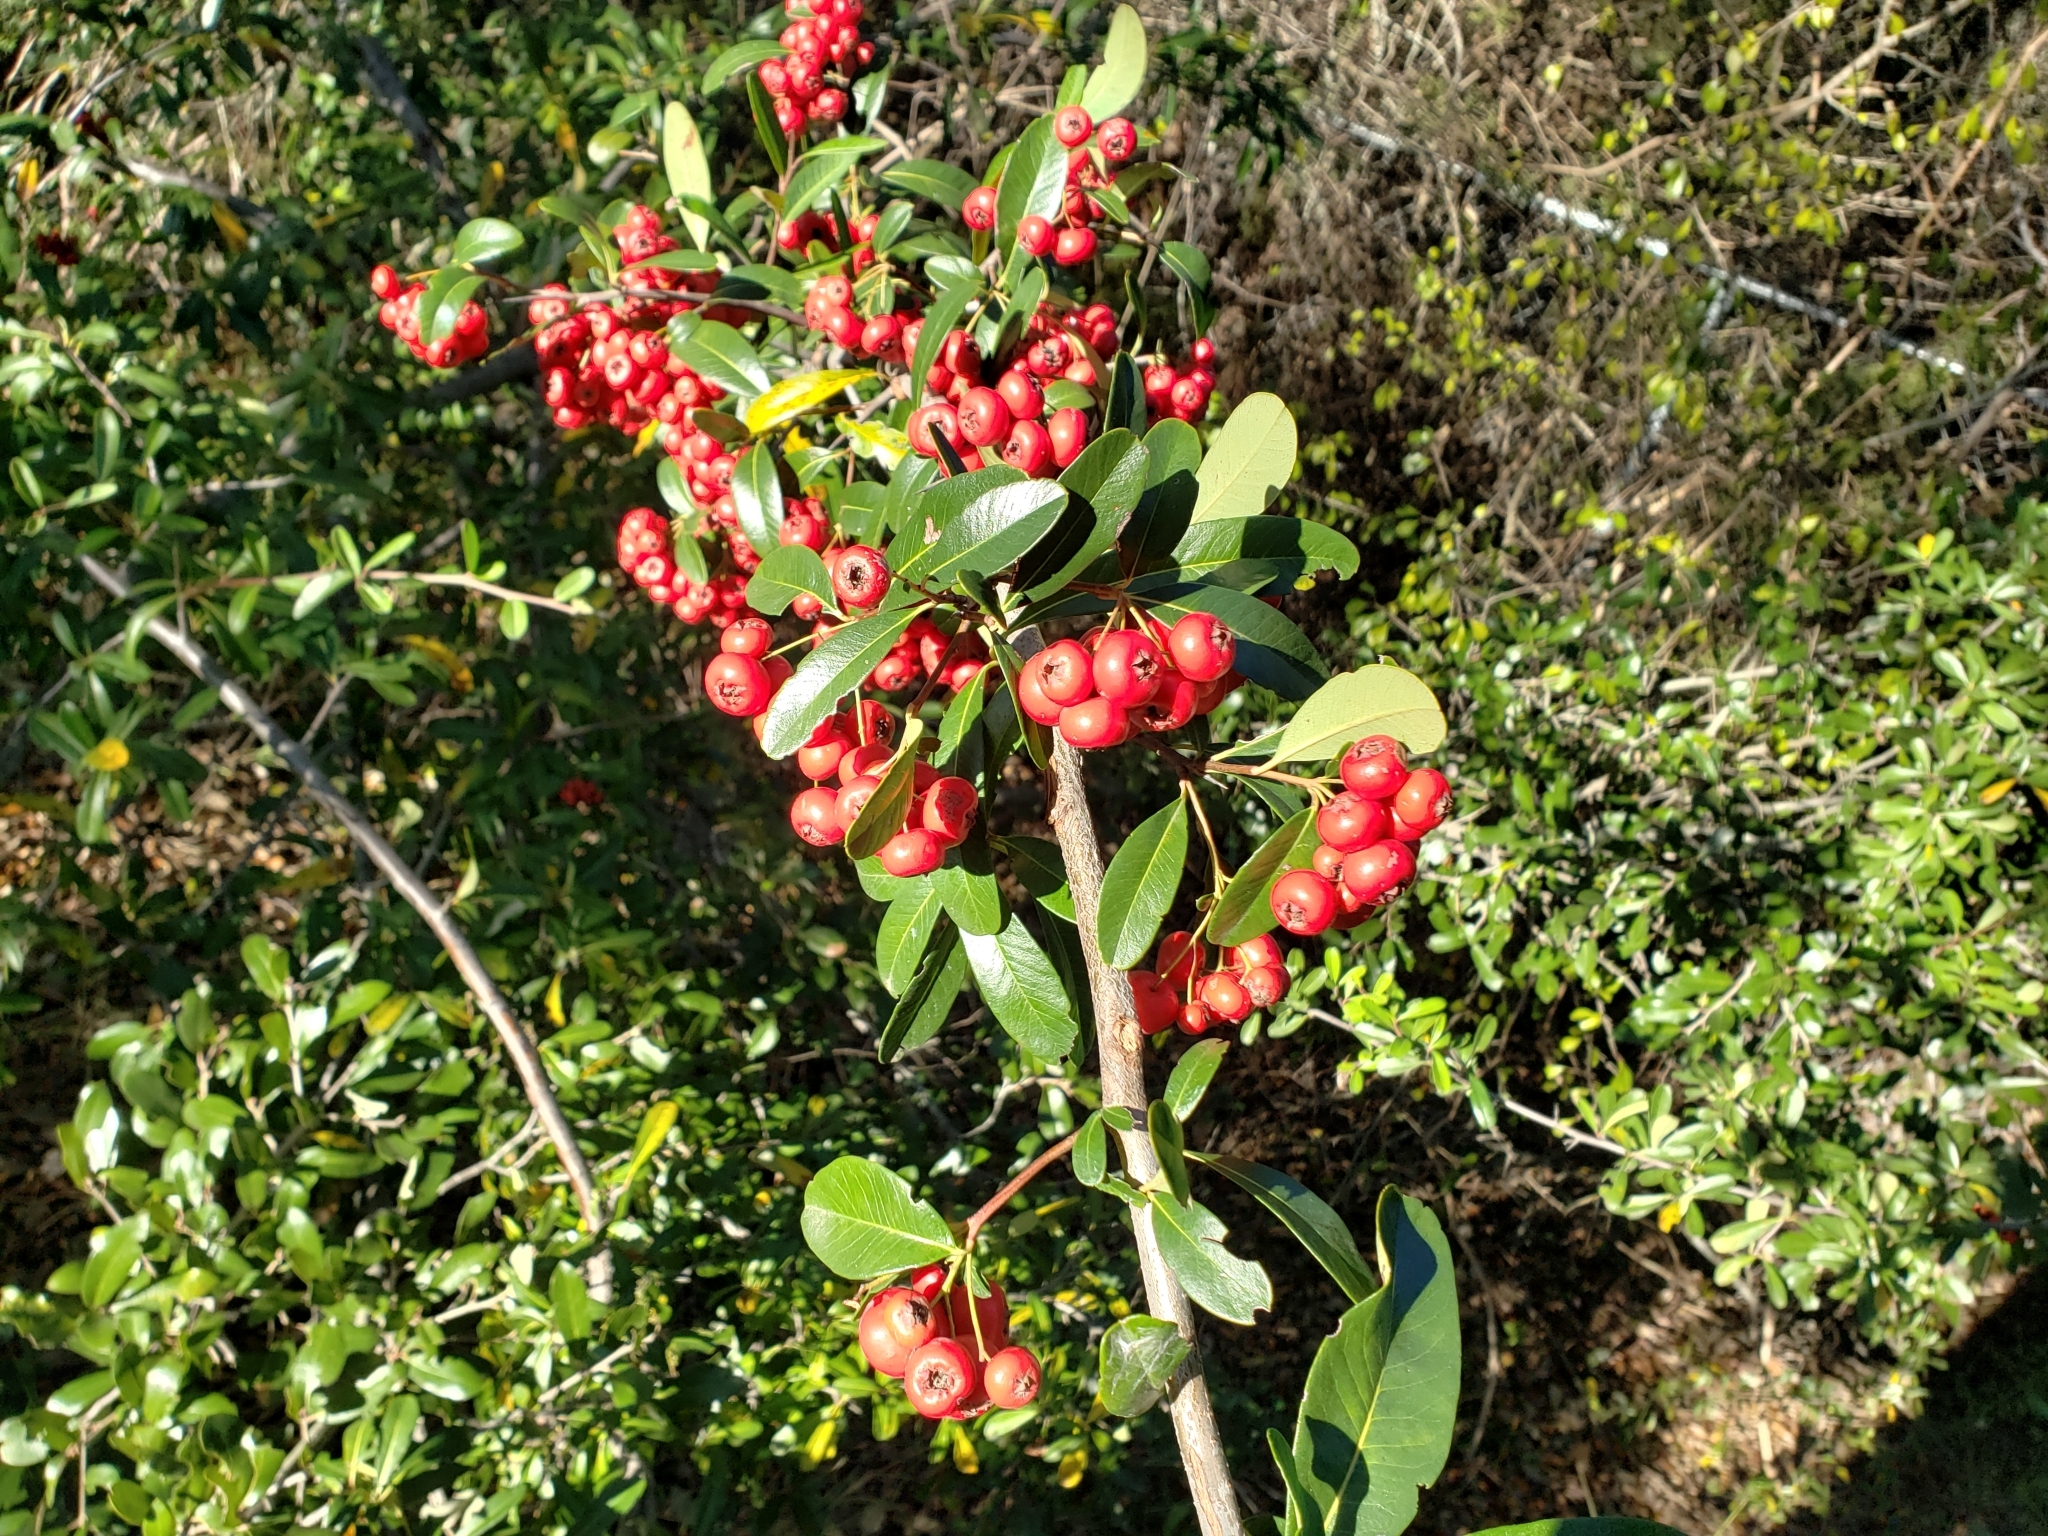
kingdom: Plantae
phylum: Tracheophyta
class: Magnoliopsida
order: Rosales
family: Rosaceae
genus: Pyracantha
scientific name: Pyracantha coccinea
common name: Firethorn
